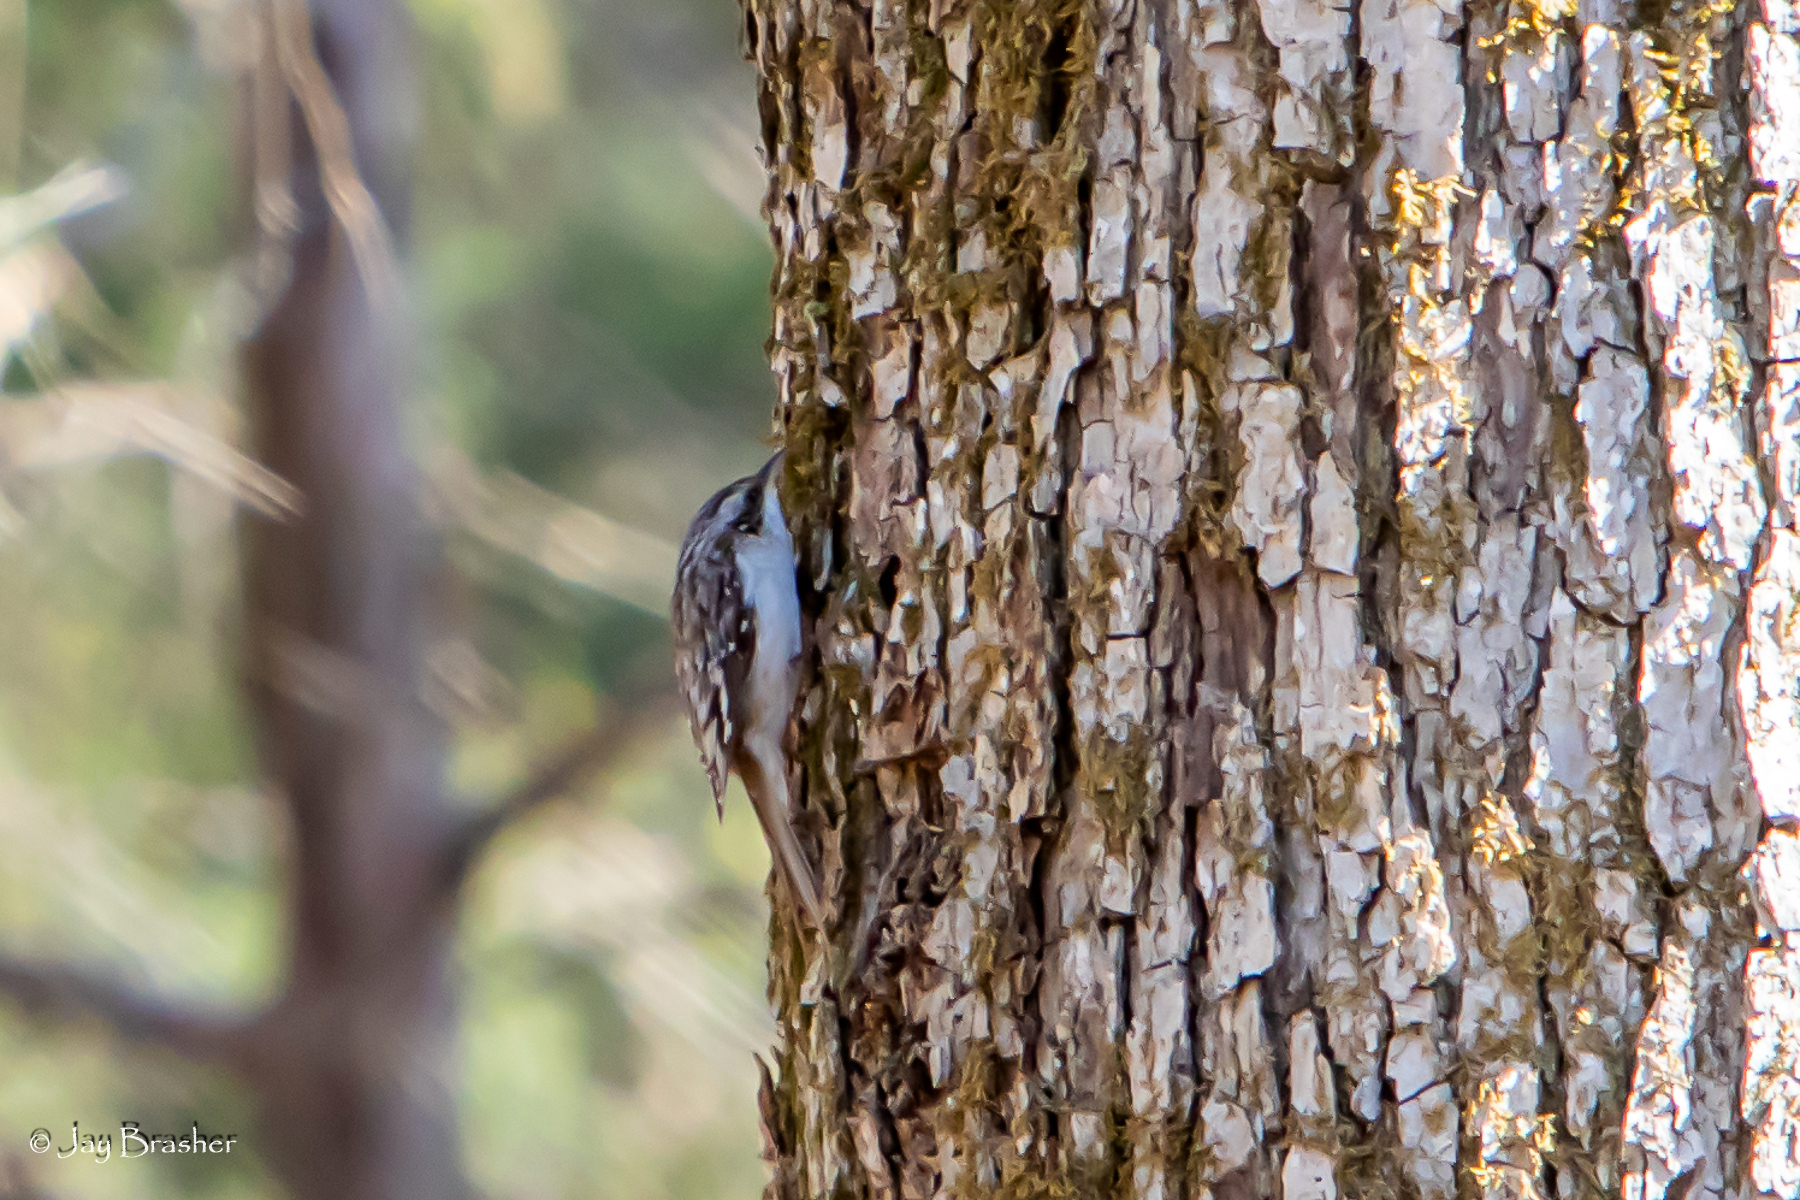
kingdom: Animalia
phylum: Chordata
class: Aves
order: Passeriformes
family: Certhiidae
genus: Certhia
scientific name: Certhia americana
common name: Brown creeper
